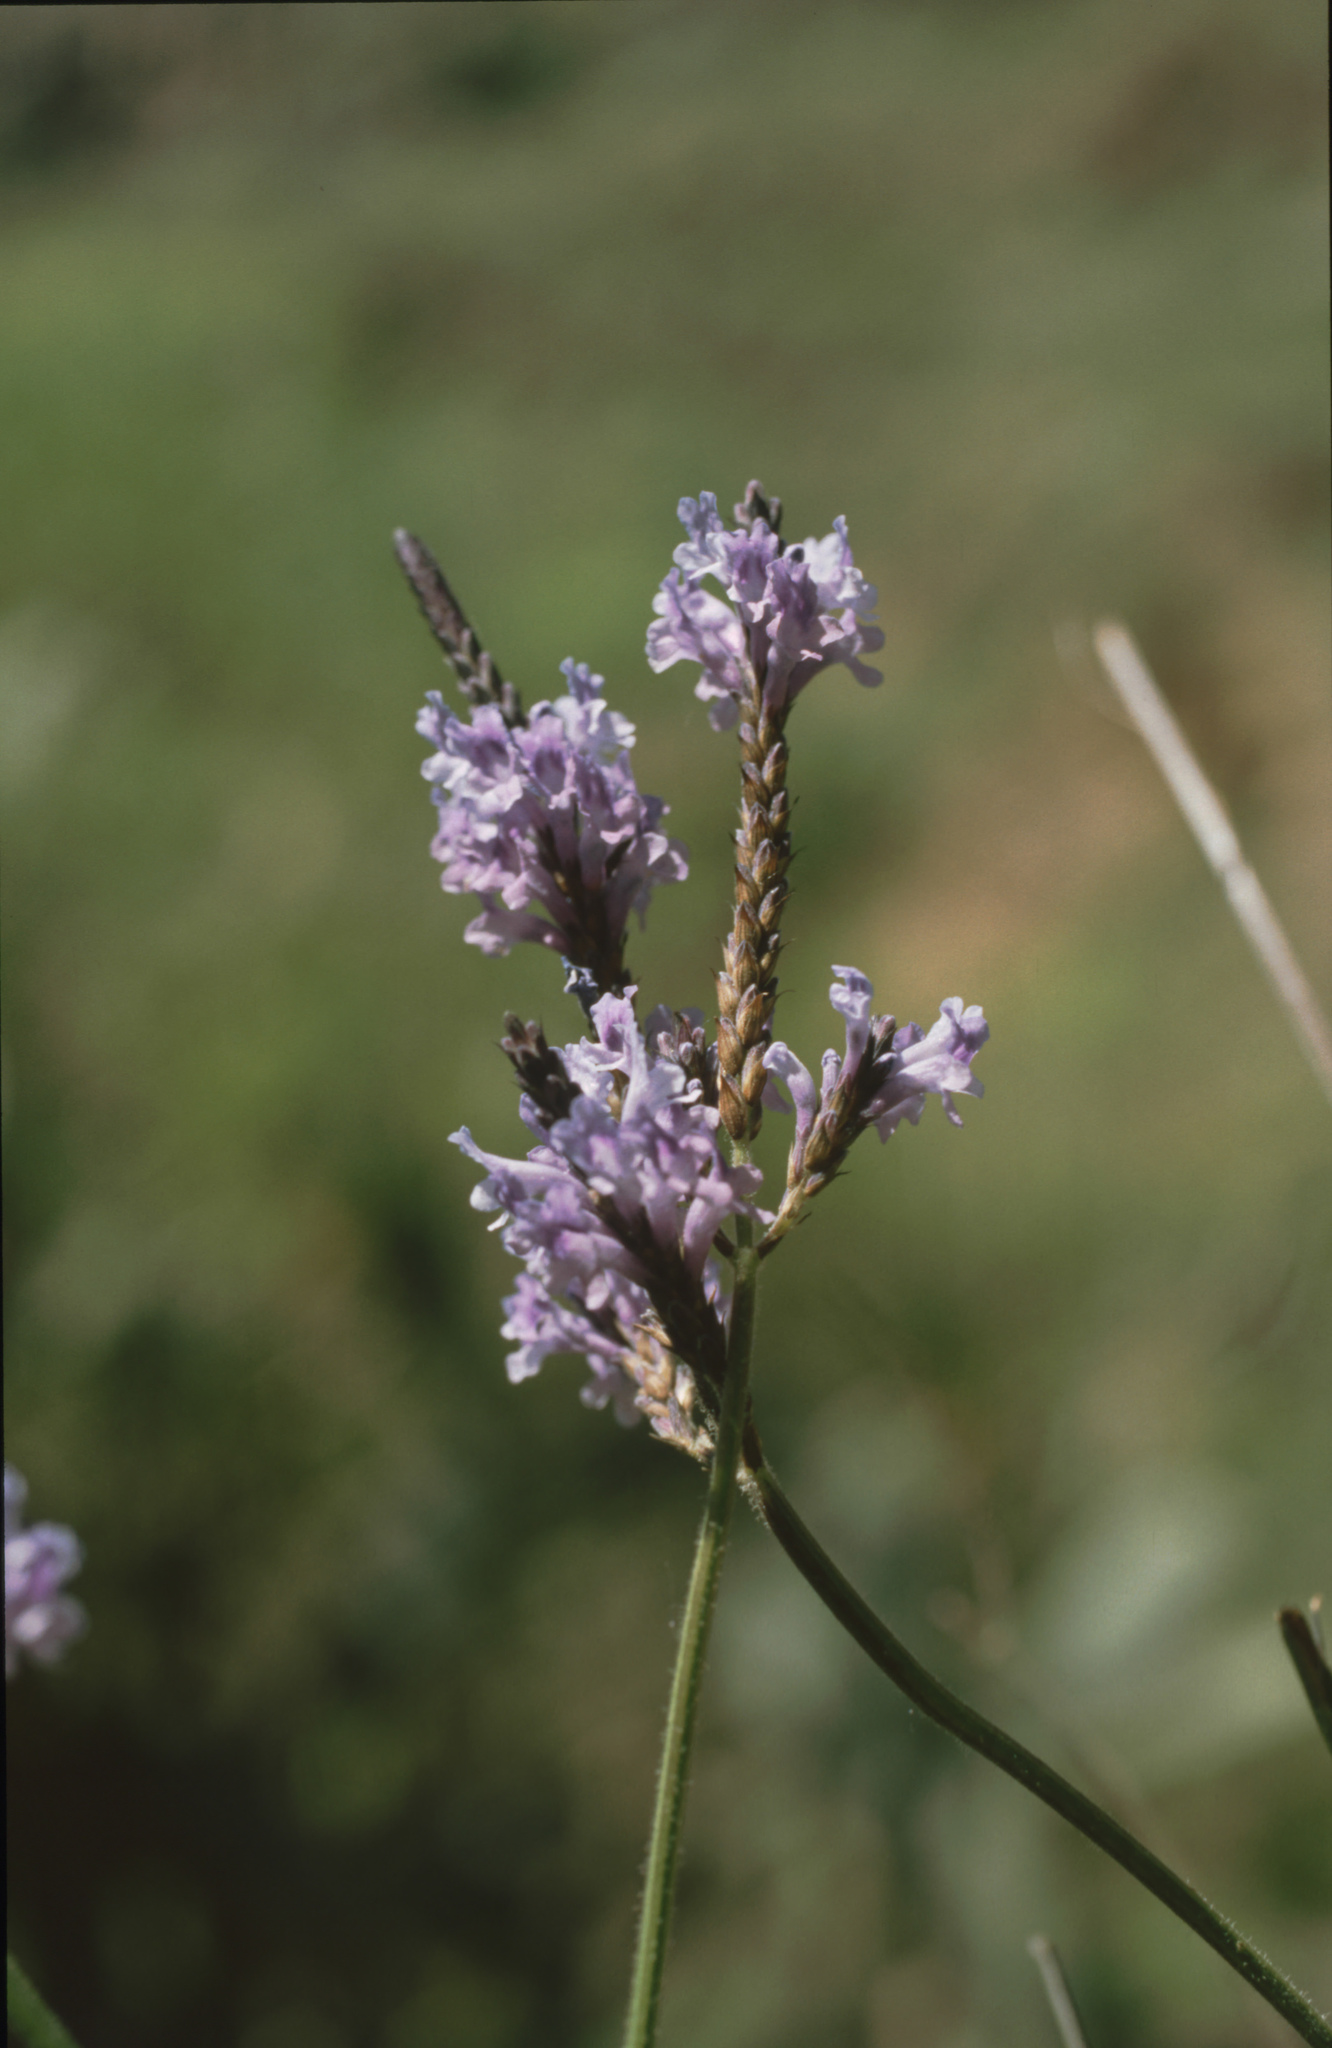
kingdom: Plantae
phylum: Tracheophyta
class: Magnoliopsida
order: Lamiales
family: Lamiaceae
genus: Lavandula
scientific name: Lavandula canariensis
